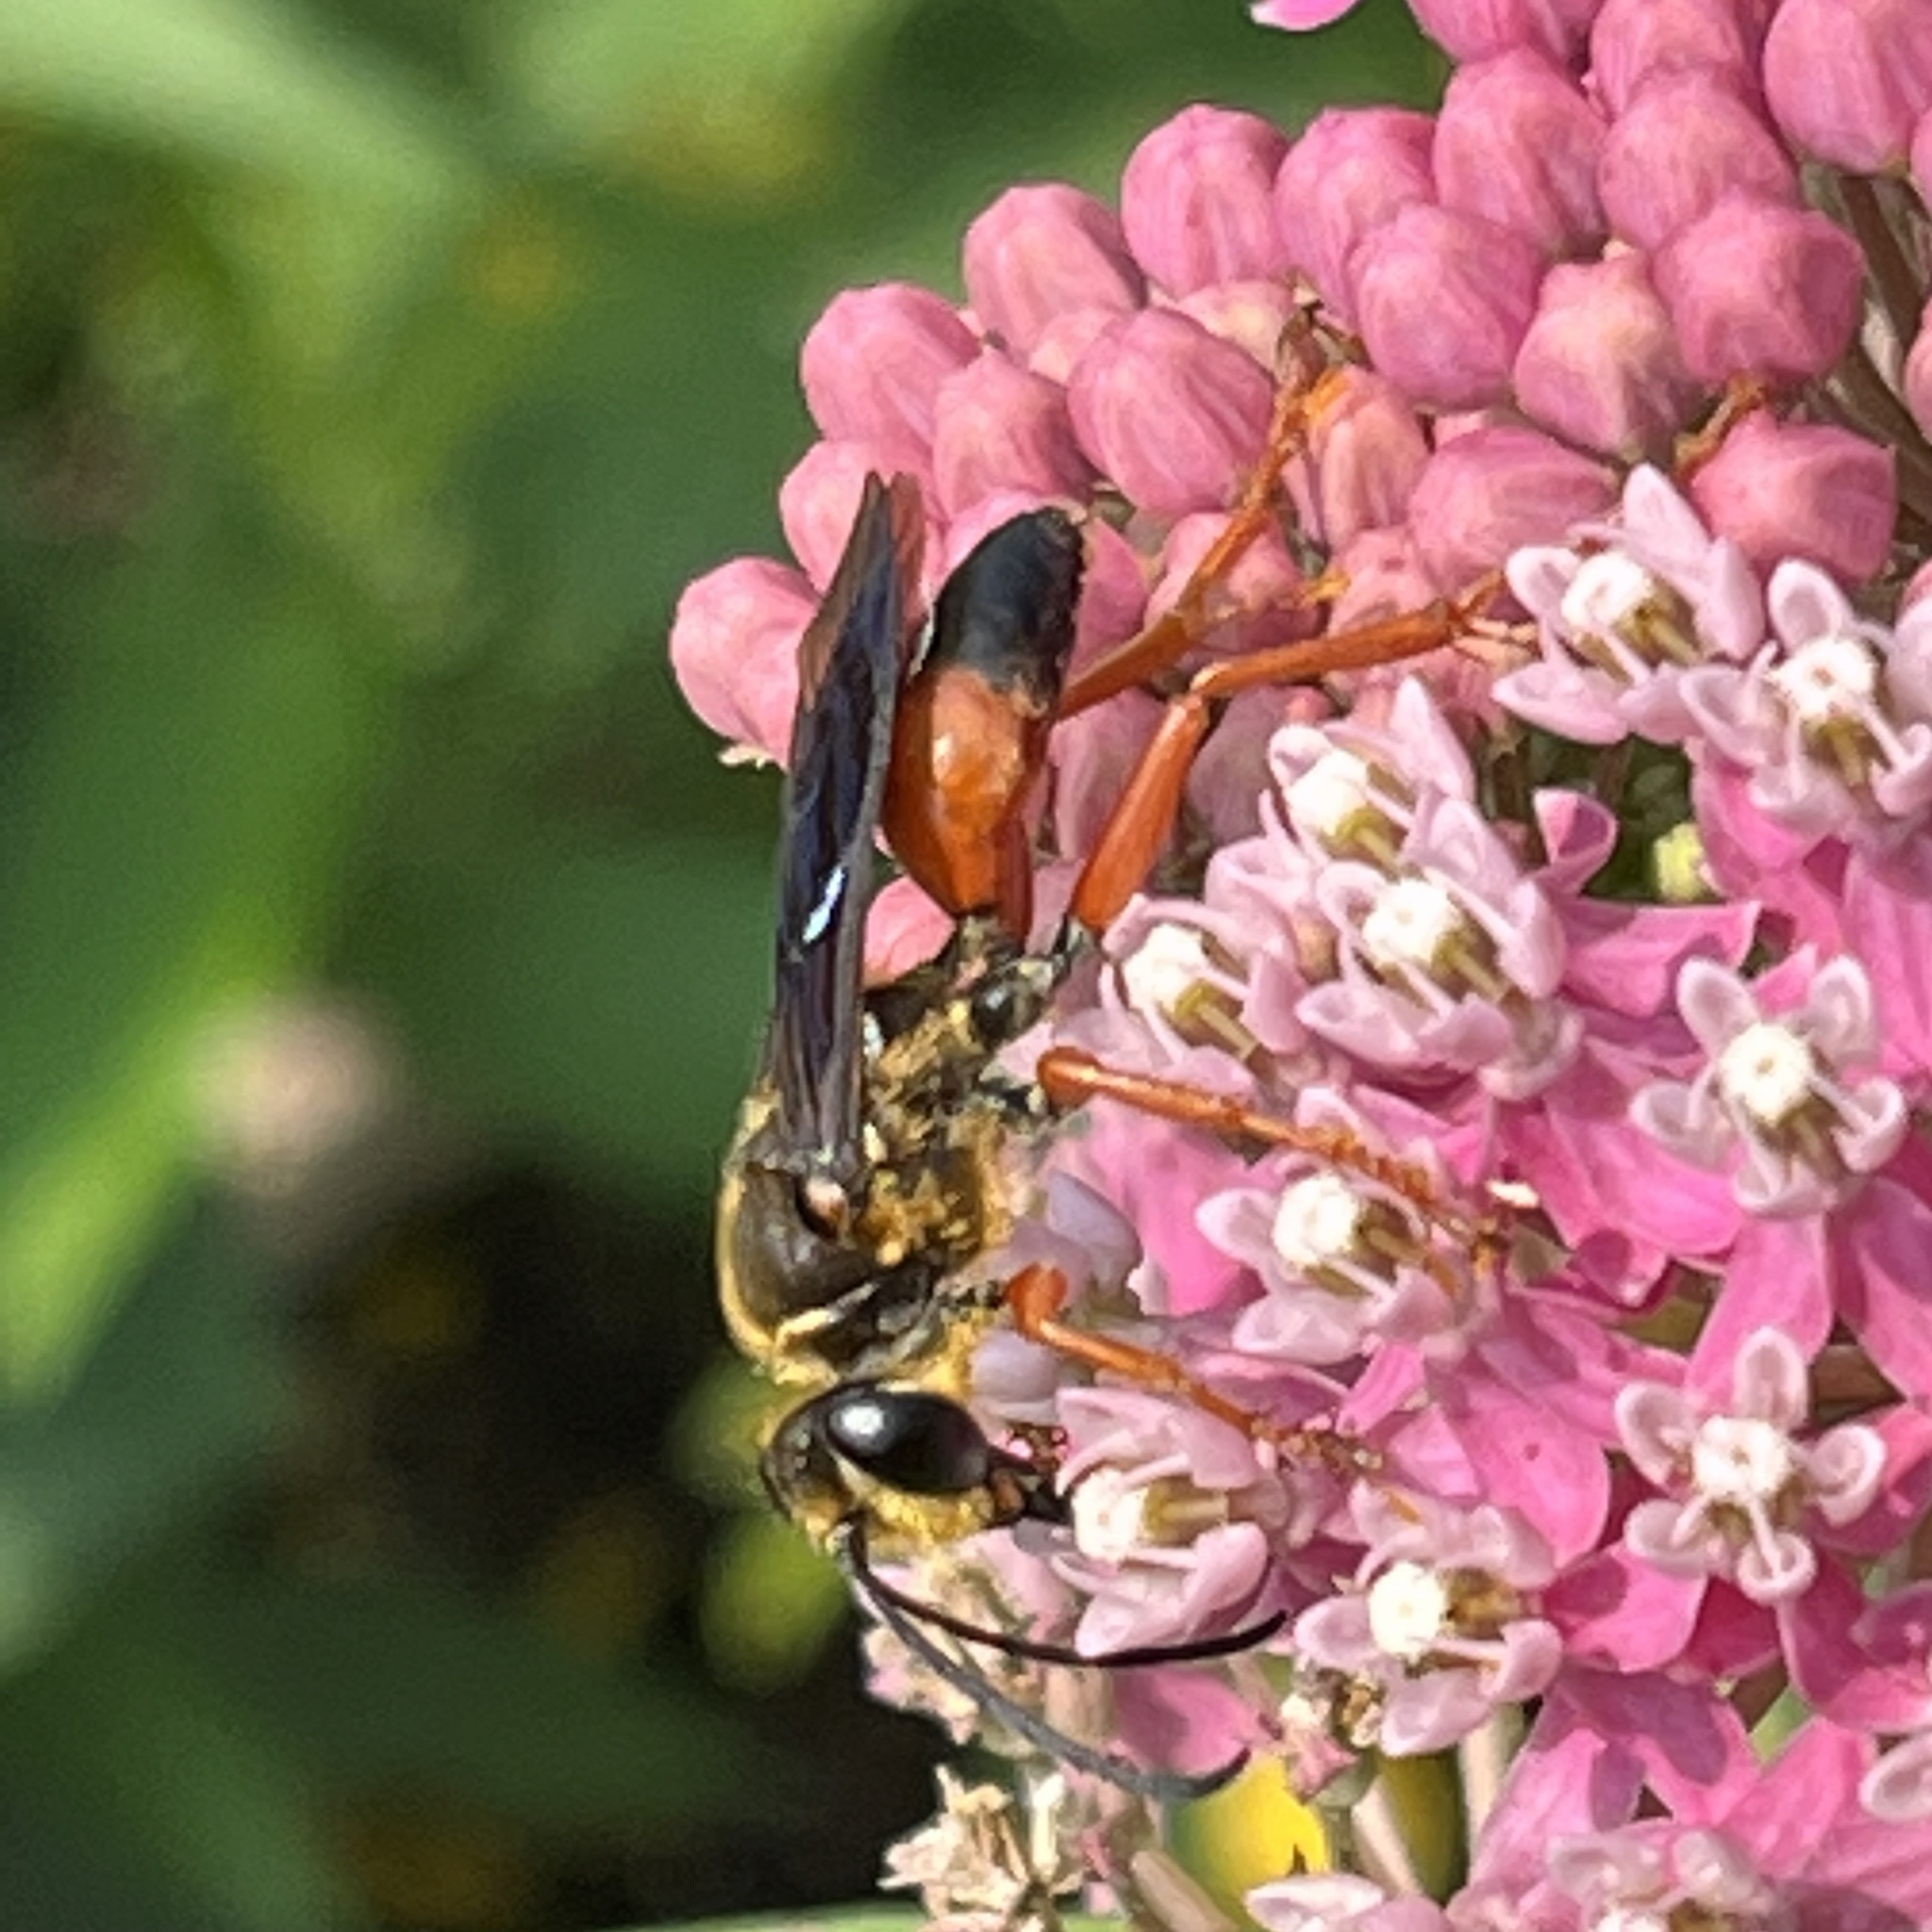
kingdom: Animalia
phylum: Arthropoda
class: Insecta
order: Hymenoptera
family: Sphecidae
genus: Sphex
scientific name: Sphex ichneumoneus
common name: Great golden digger wasp
